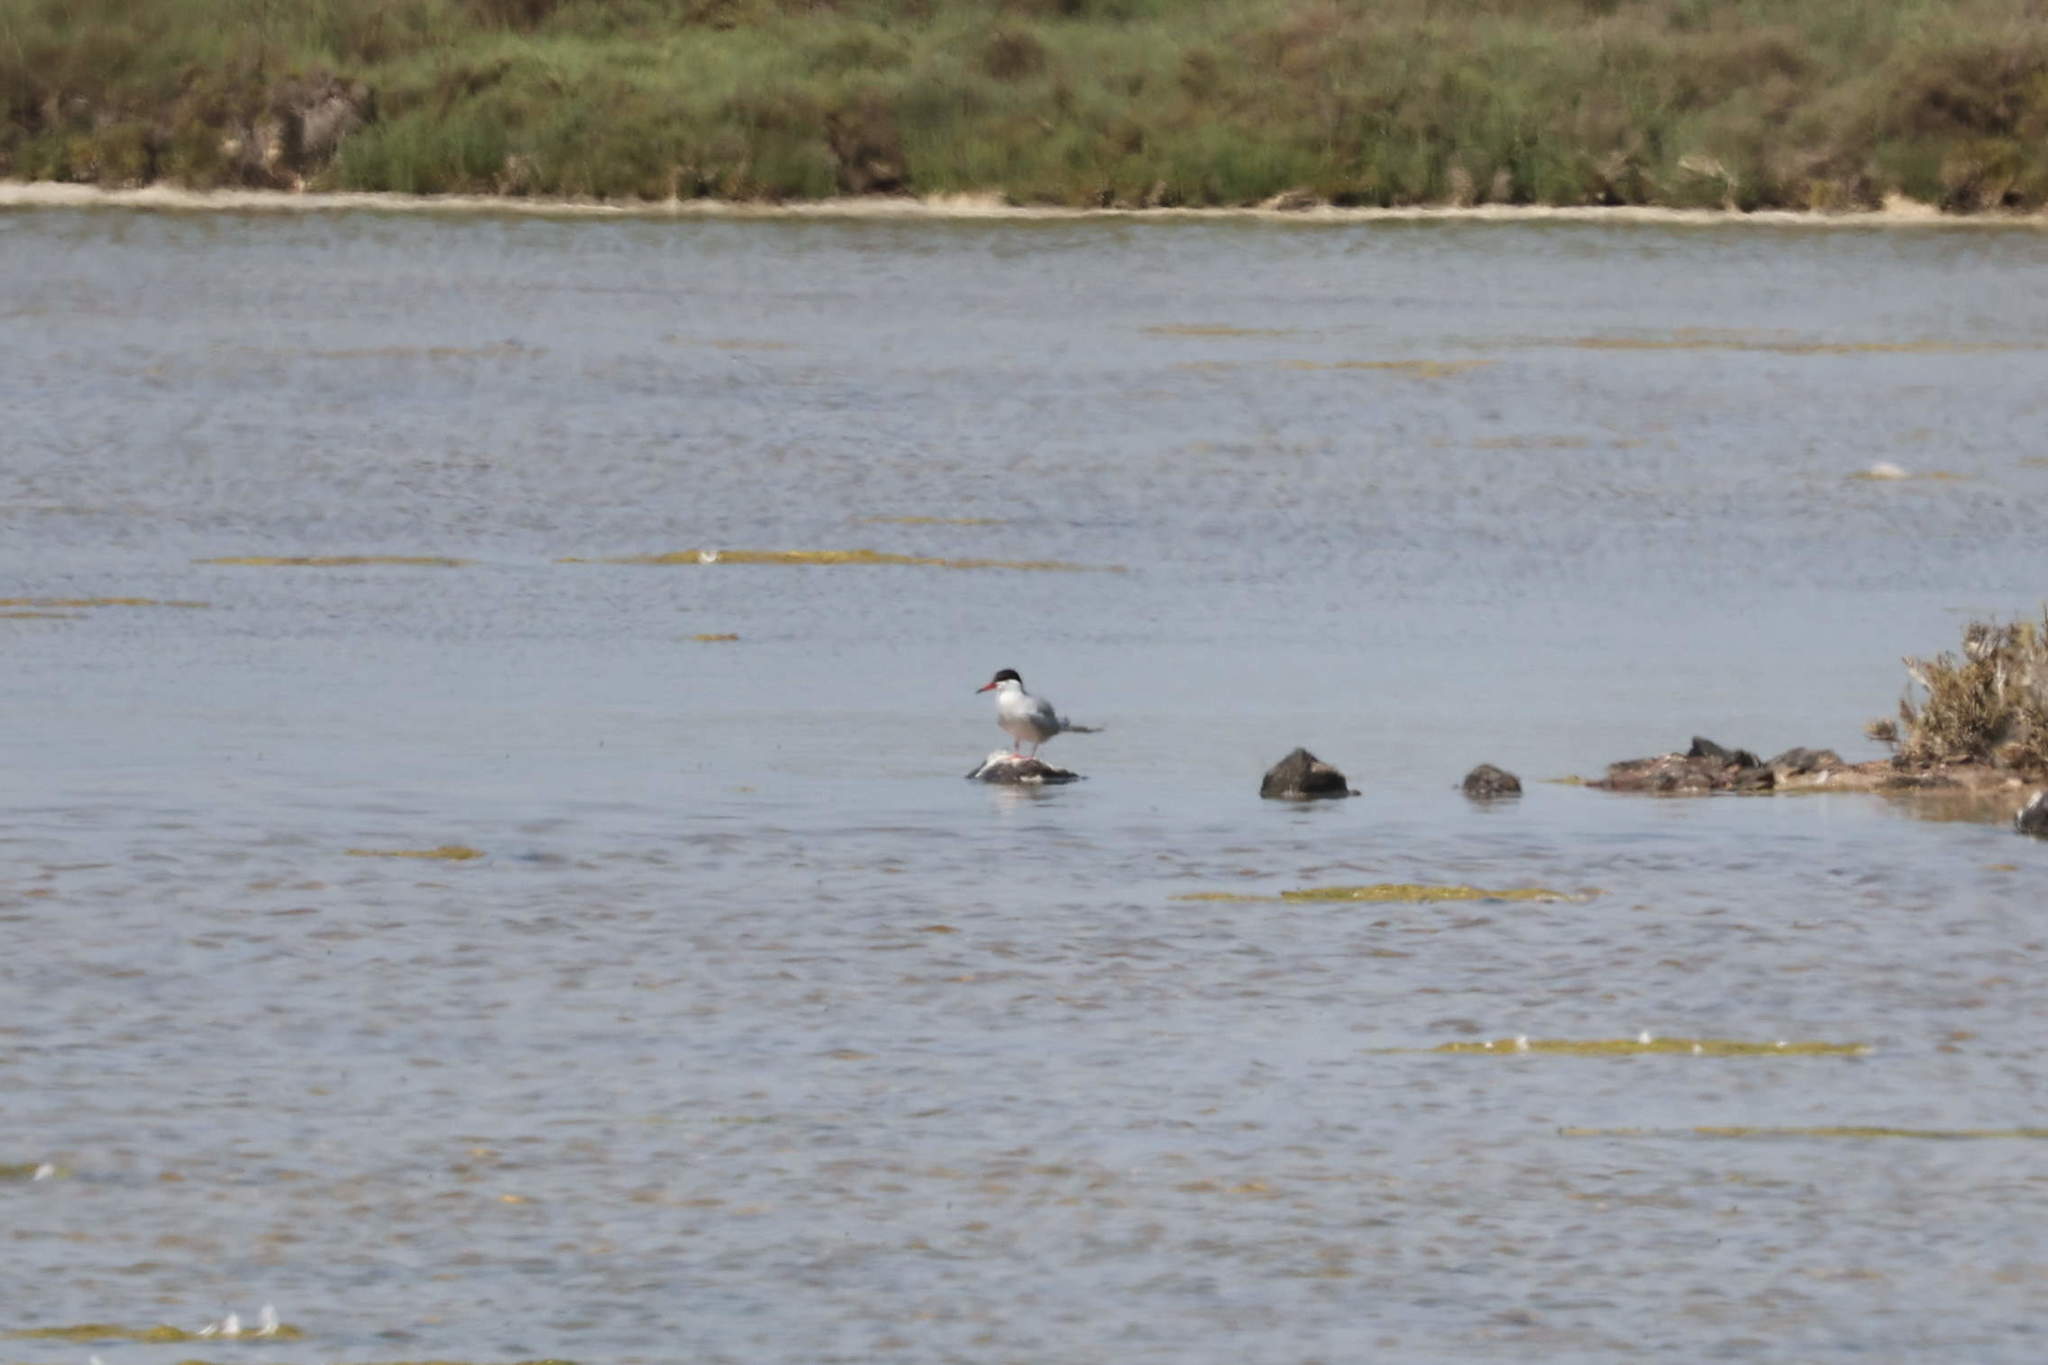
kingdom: Animalia
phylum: Chordata
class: Aves
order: Charadriiformes
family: Laridae
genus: Sterna
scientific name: Sterna hirundo
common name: Common tern
